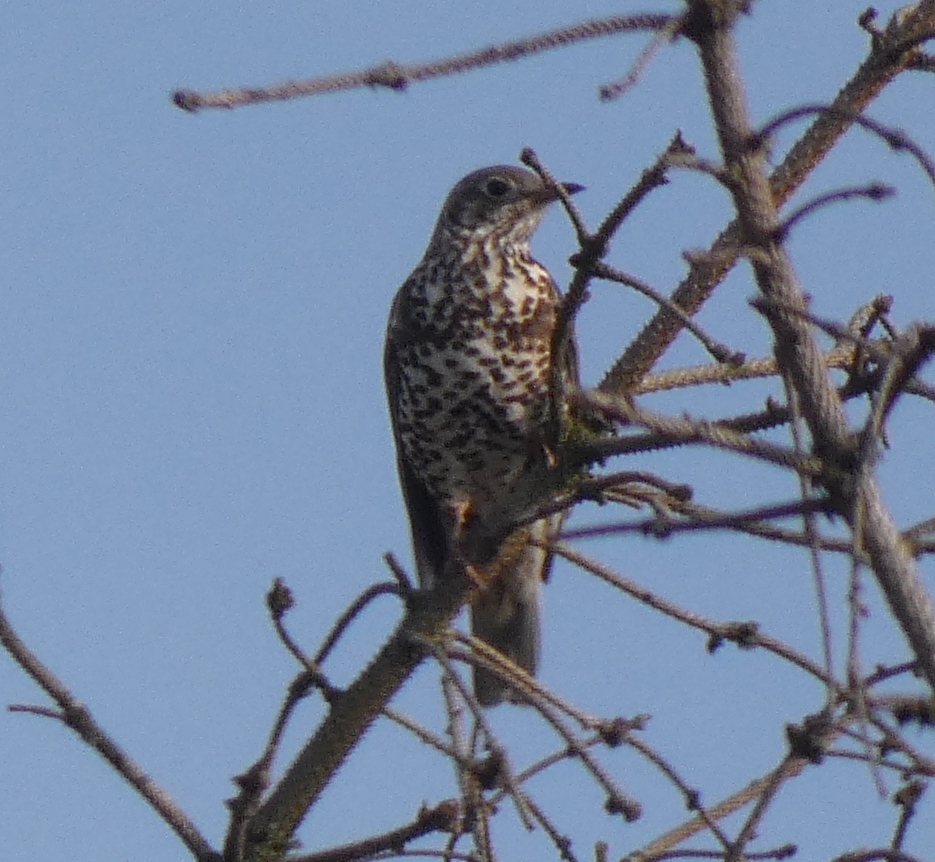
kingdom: Animalia
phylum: Chordata
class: Aves
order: Passeriformes
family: Turdidae
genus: Turdus
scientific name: Turdus viscivorus
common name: Mistle thrush
